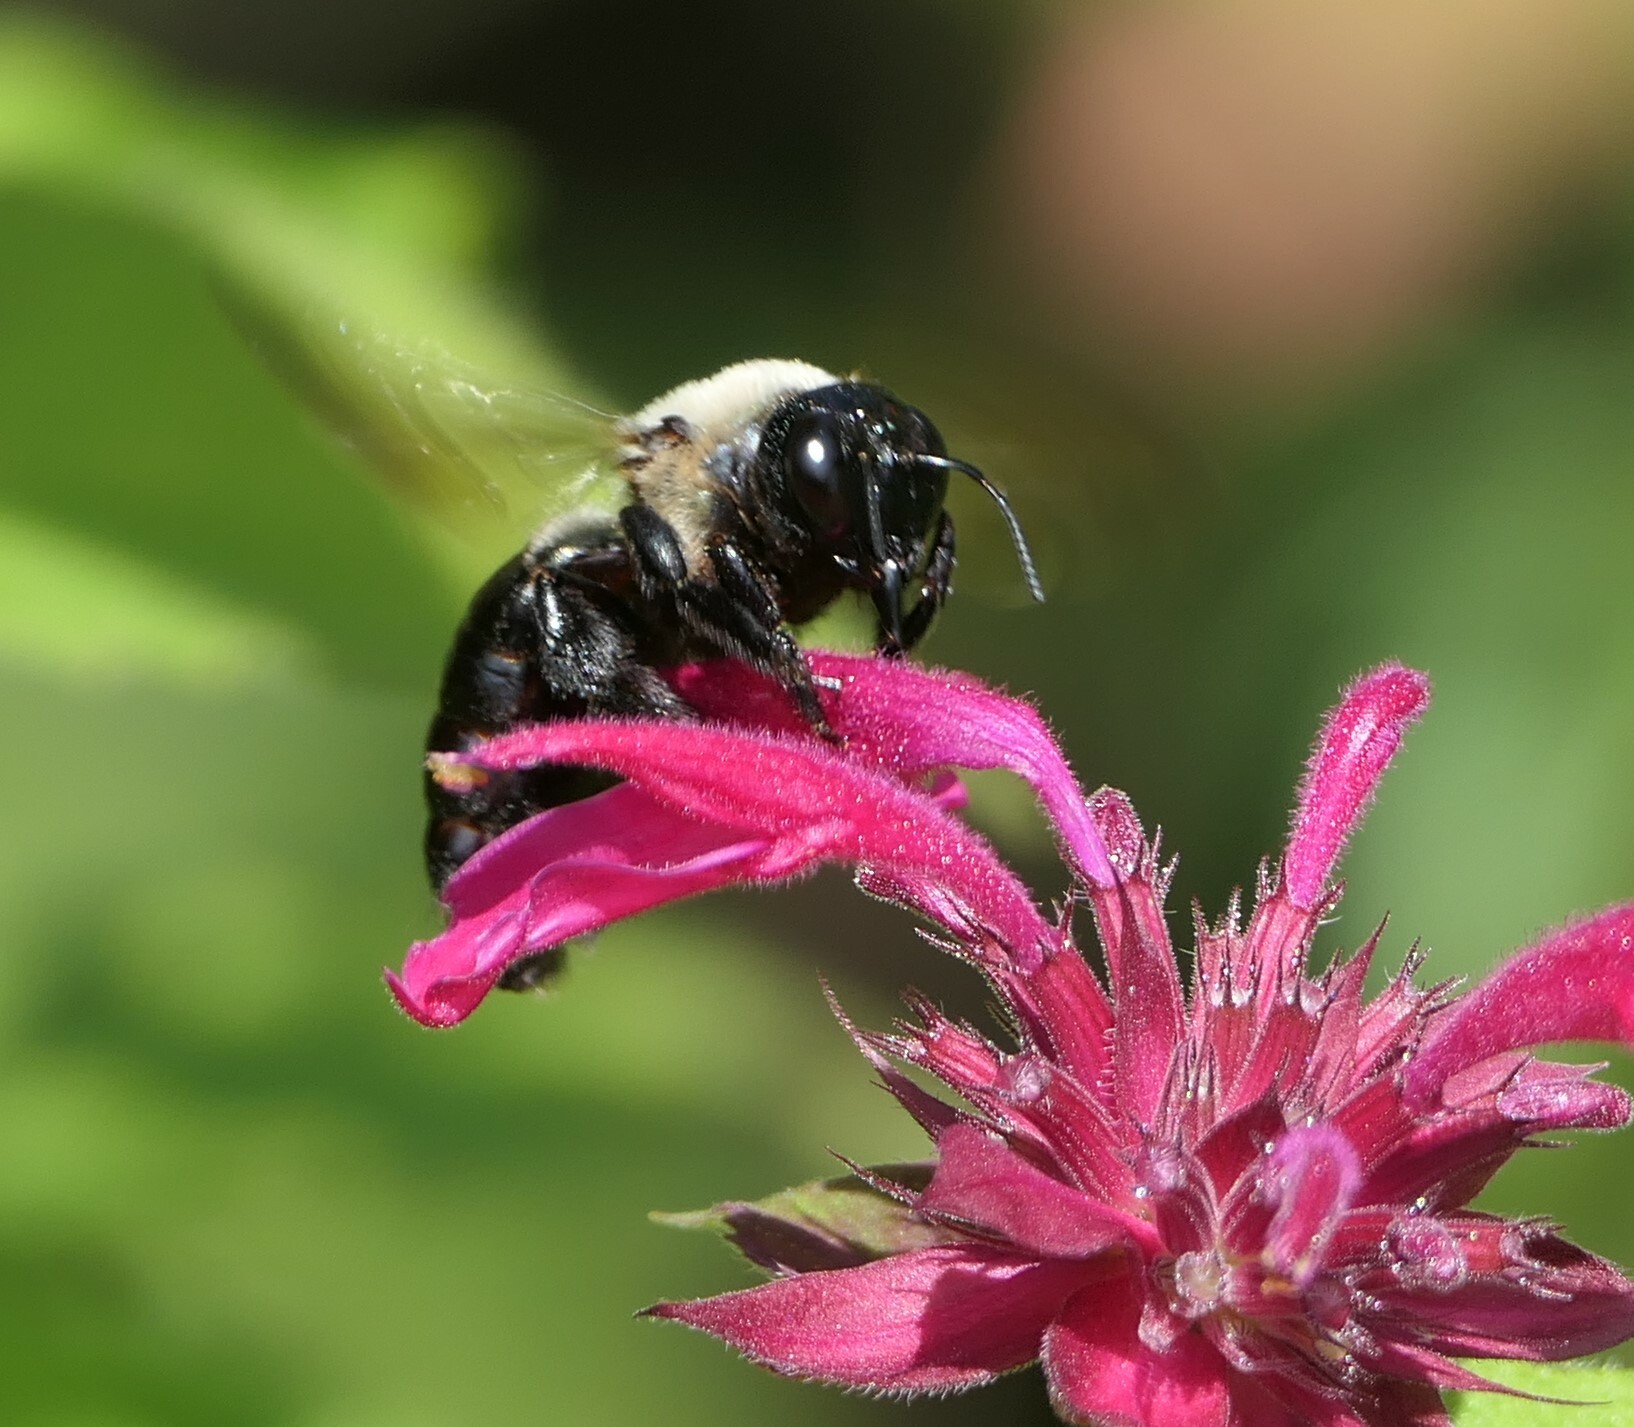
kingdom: Animalia
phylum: Arthropoda
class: Insecta
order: Hymenoptera
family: Apidae
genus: Xylocopa
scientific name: Xylocopa virginica
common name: Carpenter bee
